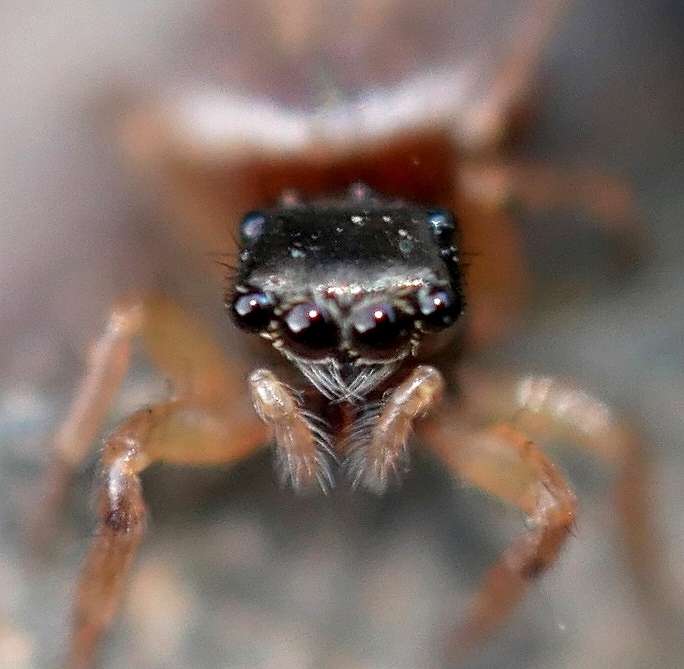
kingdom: Animalia
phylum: Arthropoda
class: Arachnida
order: Araneae
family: Salticidae
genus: Chalcoscirtus
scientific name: Chalcoscirtus diminutus
